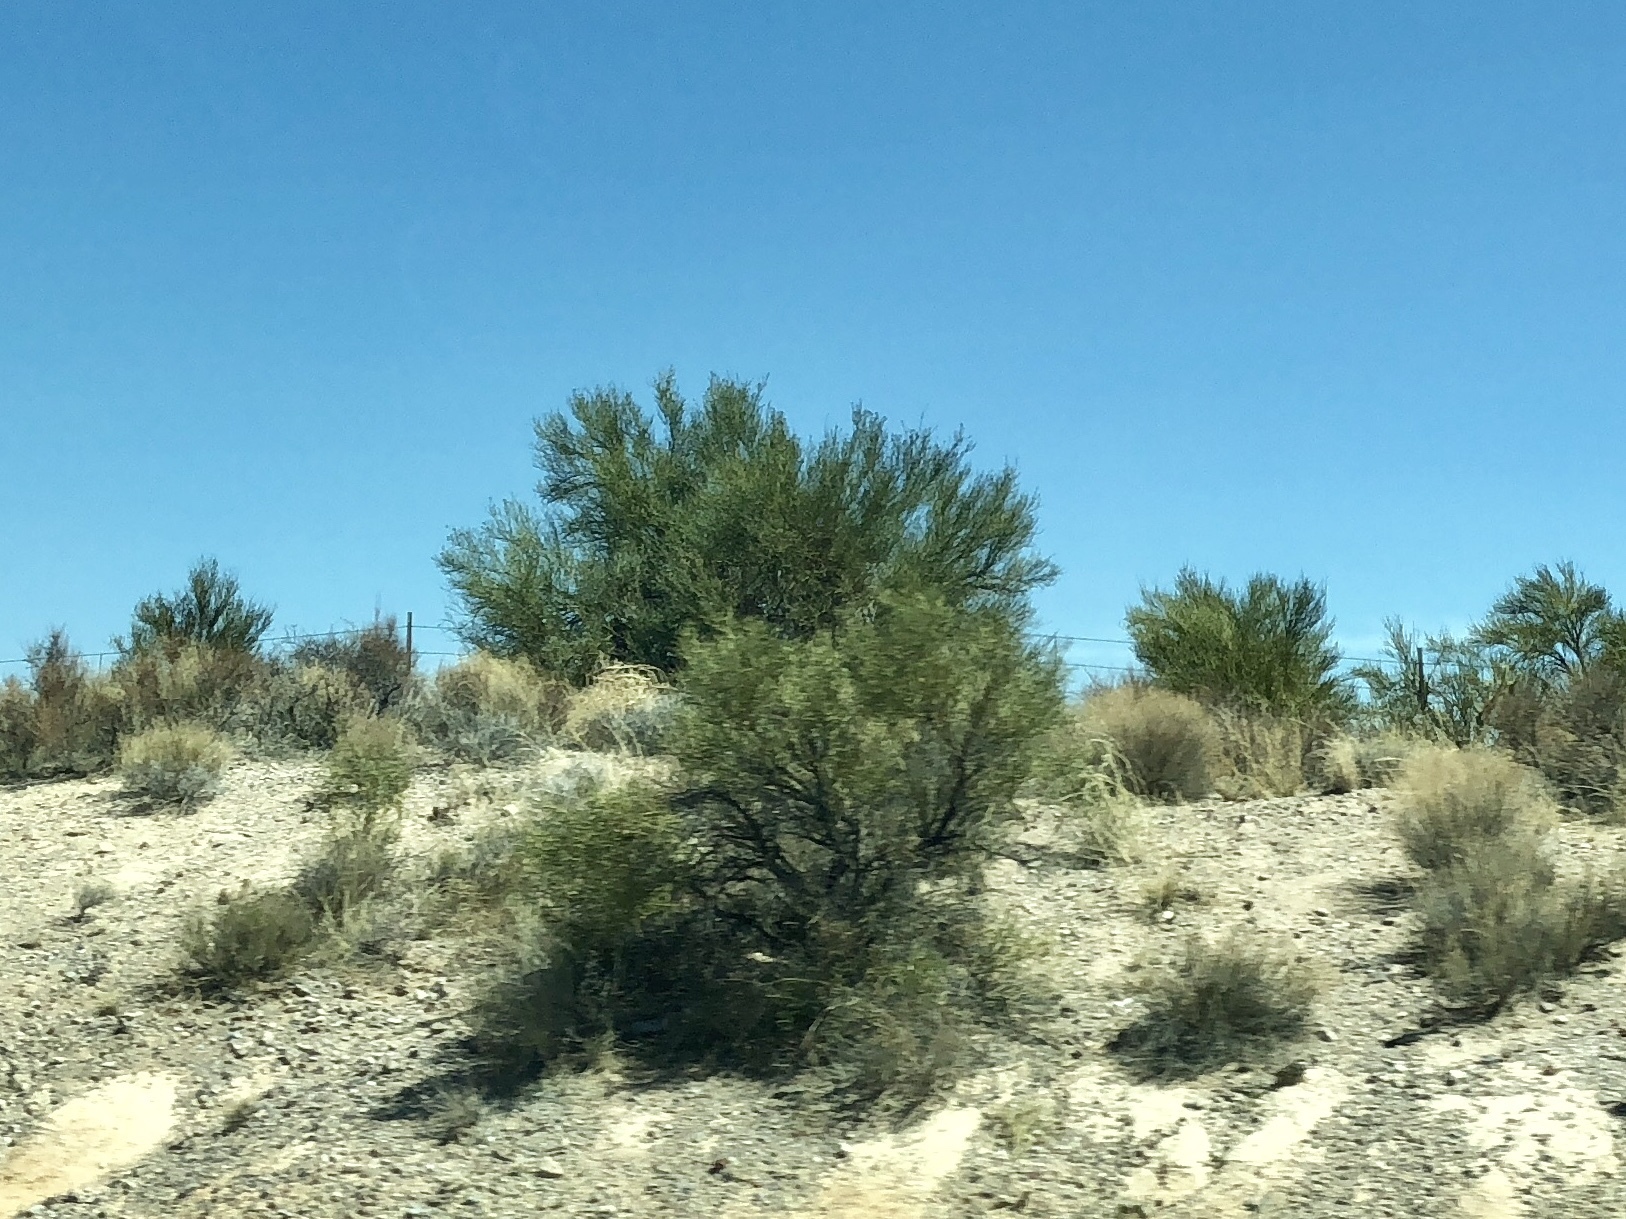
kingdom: Plantae
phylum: Tracheophyta
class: Magnoliopsida
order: Celastrales
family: Celastraceae
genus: Canotia
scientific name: Canotia holacantha
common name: Crucifixion thorns
